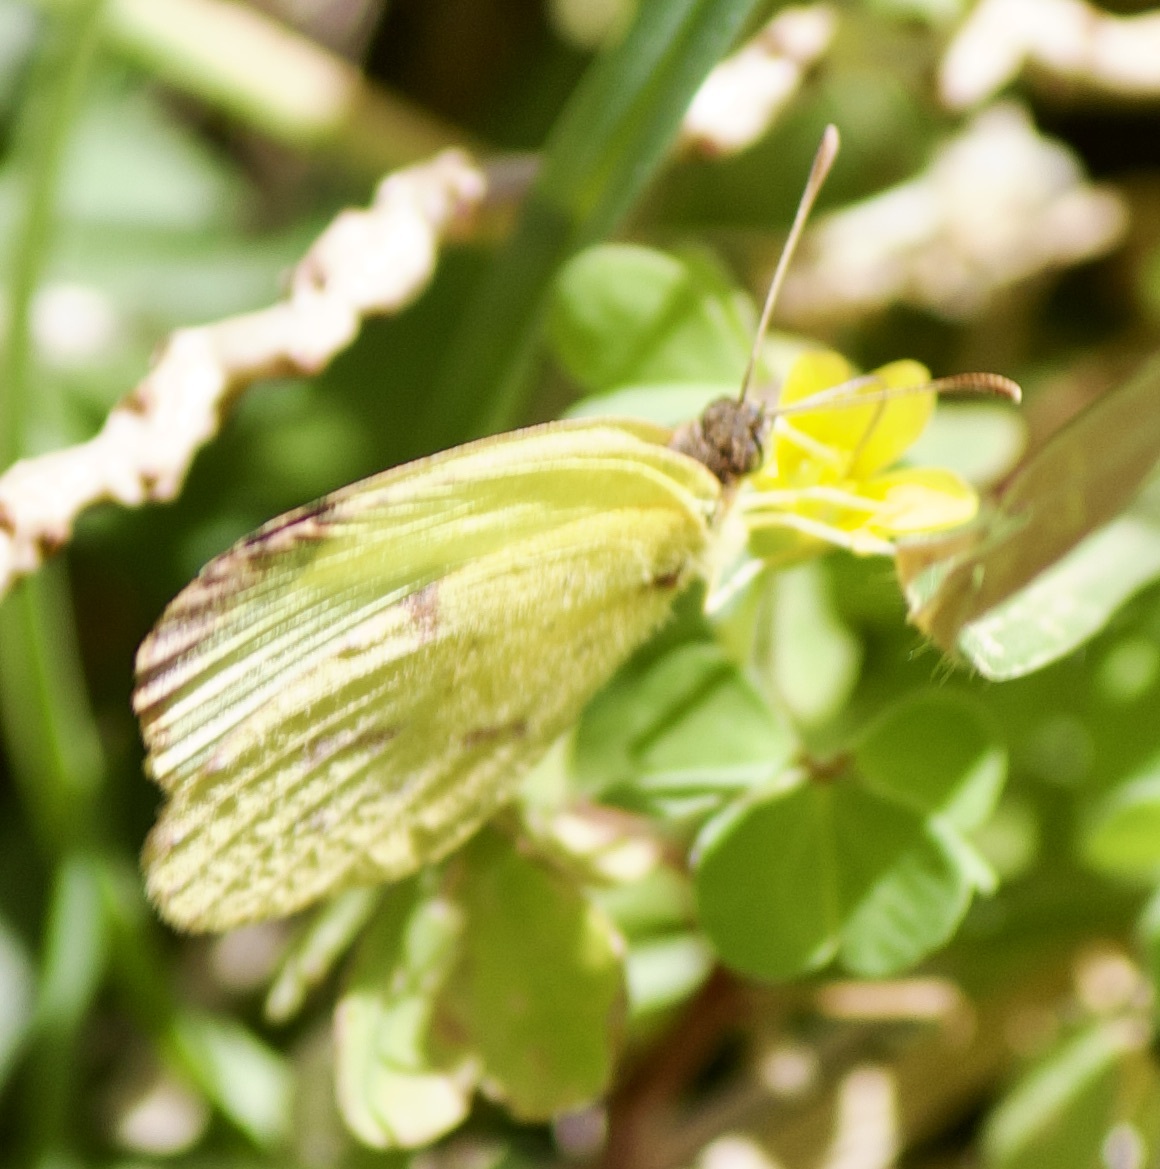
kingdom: Animalia
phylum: Arthropoda
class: Insecta
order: Lepidoptera
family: Pieridae
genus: Teriocolias
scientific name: Teriocolias
